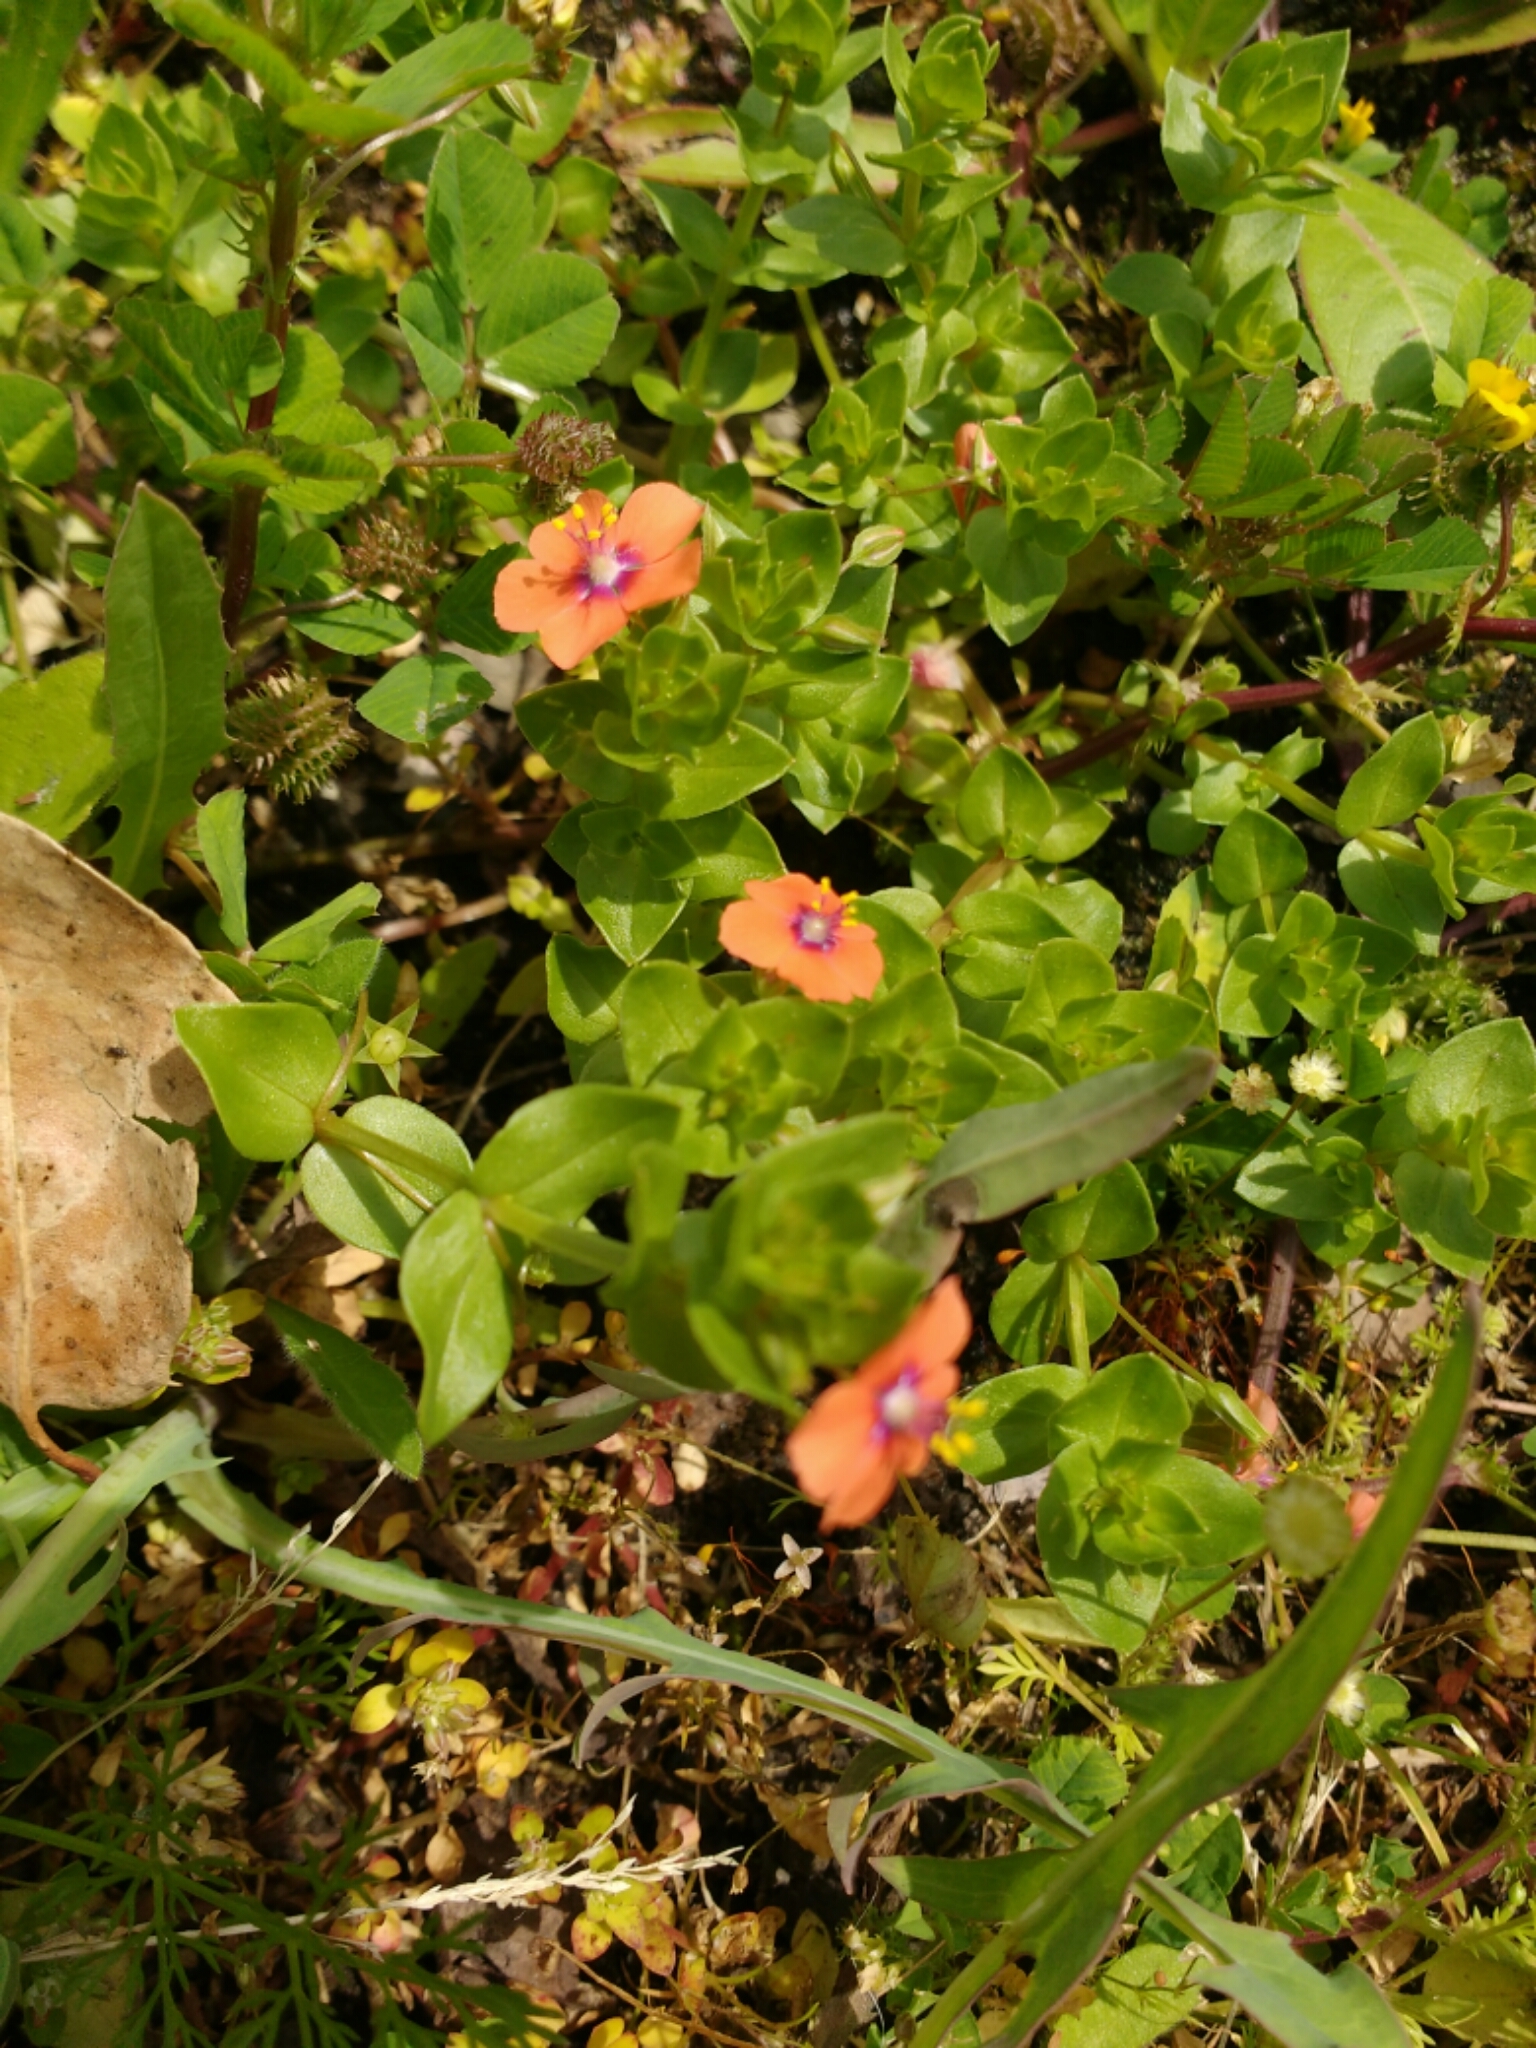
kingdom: Plantae
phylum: Tracheophyta
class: Magnoliopsida
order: Ericales
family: Primulaceae
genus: Lysimachia
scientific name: Lysimachia arvensis
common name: Scarlet pimpernel
